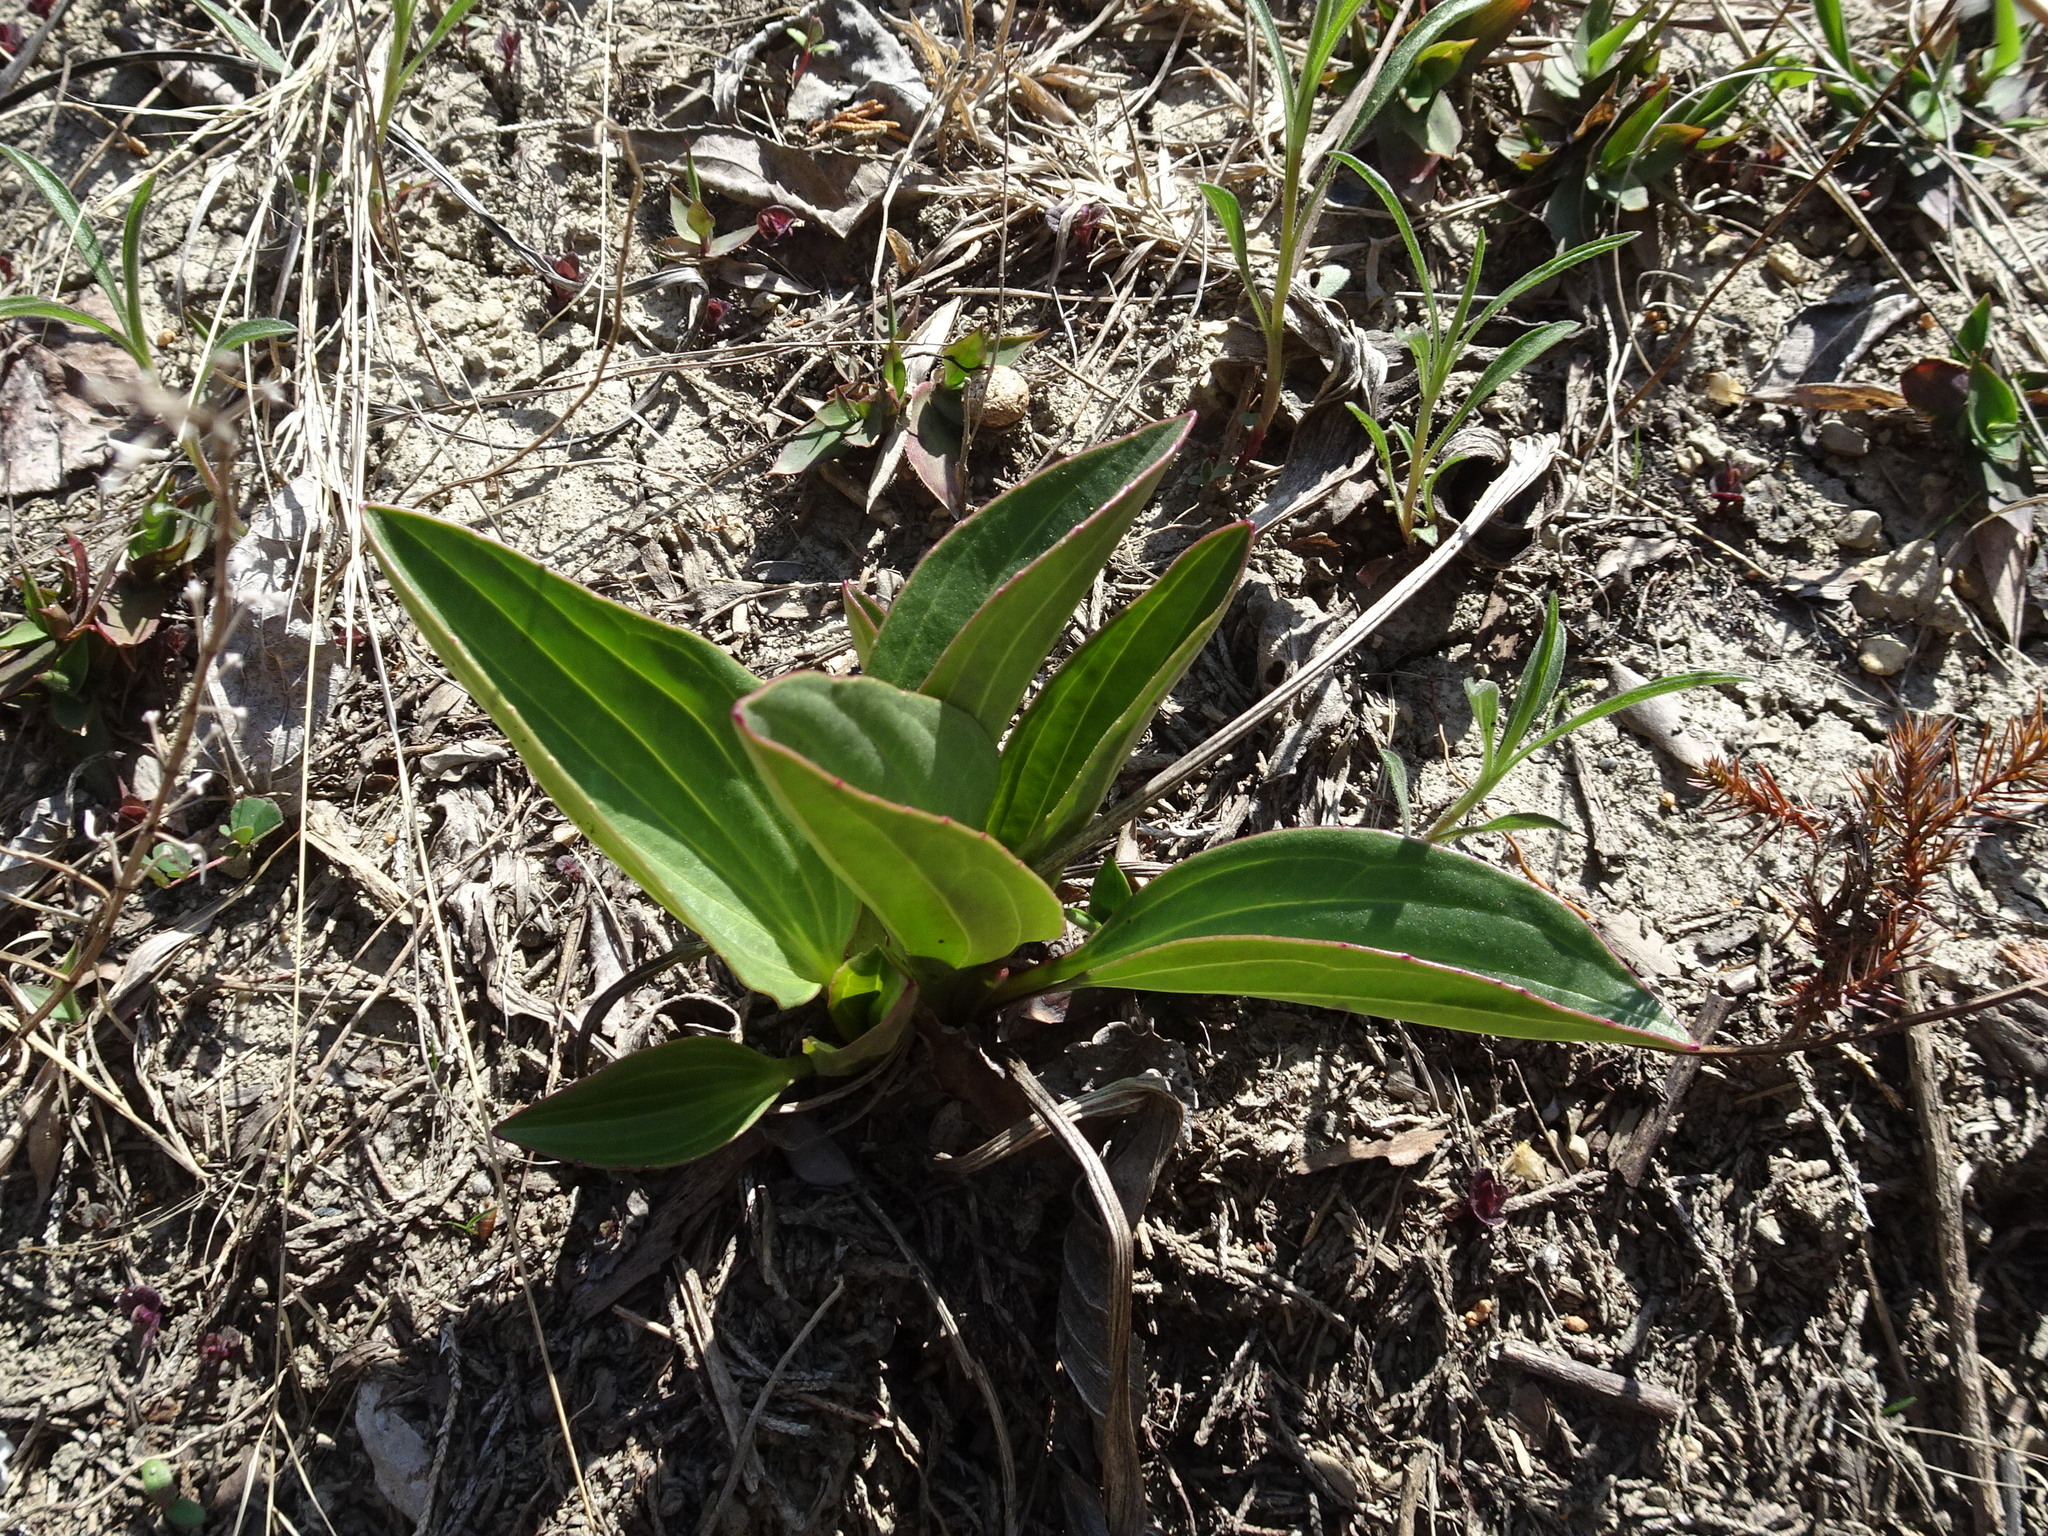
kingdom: Plantae
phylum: Tracheophyta
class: Magnoliopsida
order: Asterales
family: Asteraceae
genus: Arnoglossum
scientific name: Arnoglossum plantagineum
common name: Groove-stemmed indian-plantain
